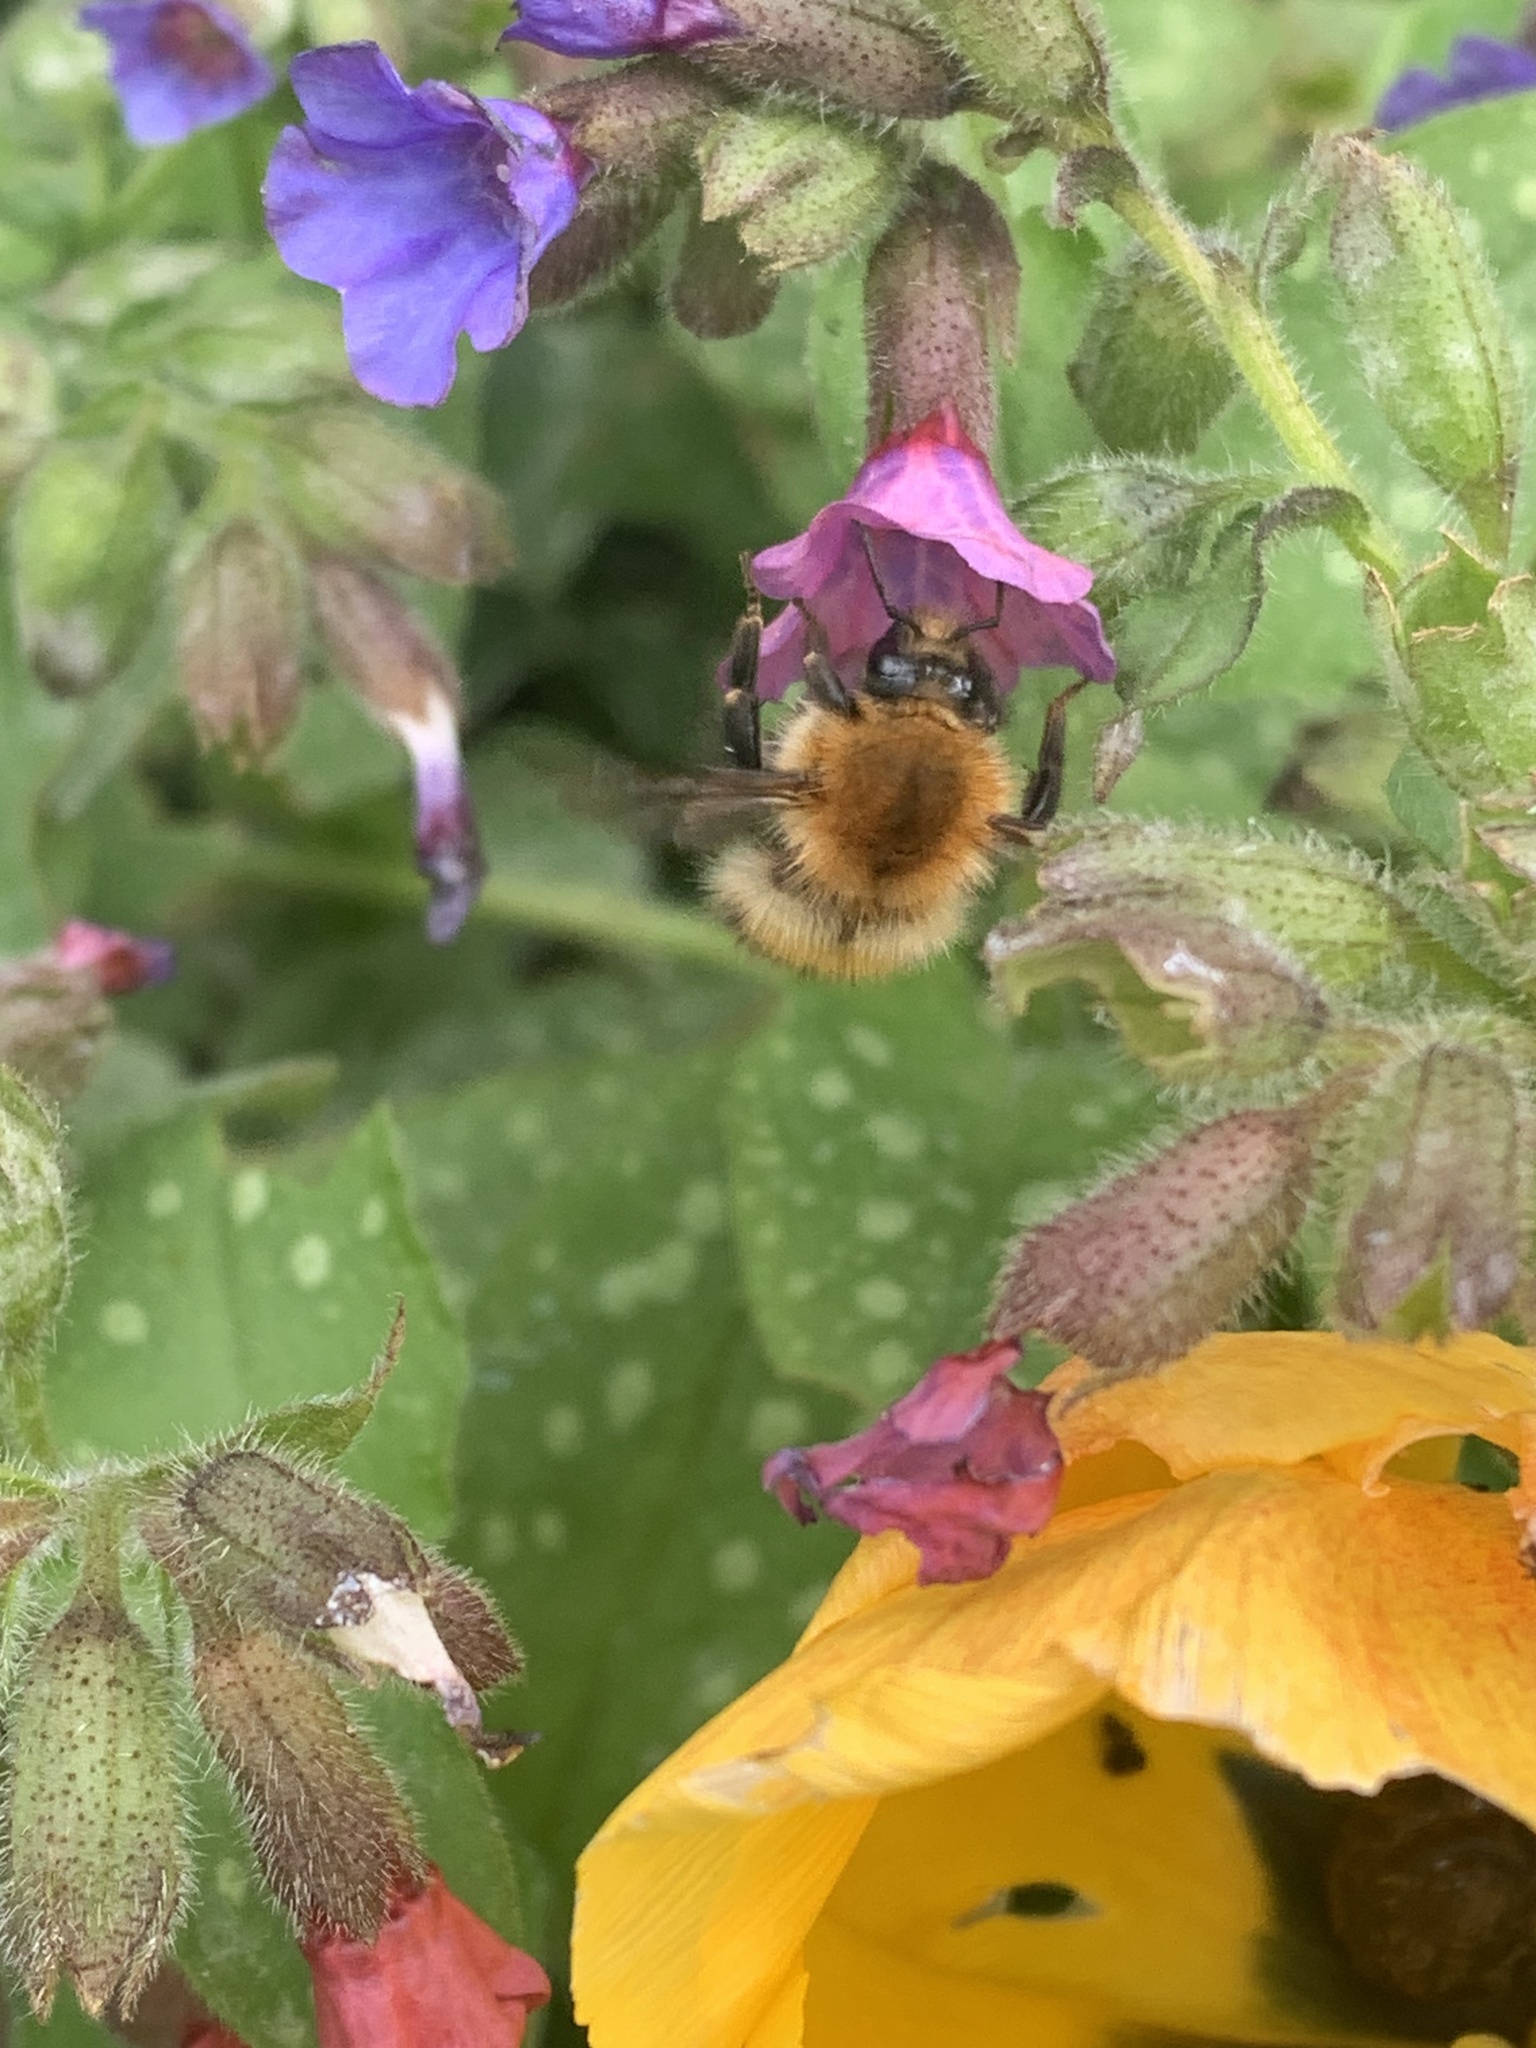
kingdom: Animalia
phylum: Arthropoda
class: Insecta
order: Hymenoptera
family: Apidae
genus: Bombus
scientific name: Bombus pascuorum
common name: Common carder bee
